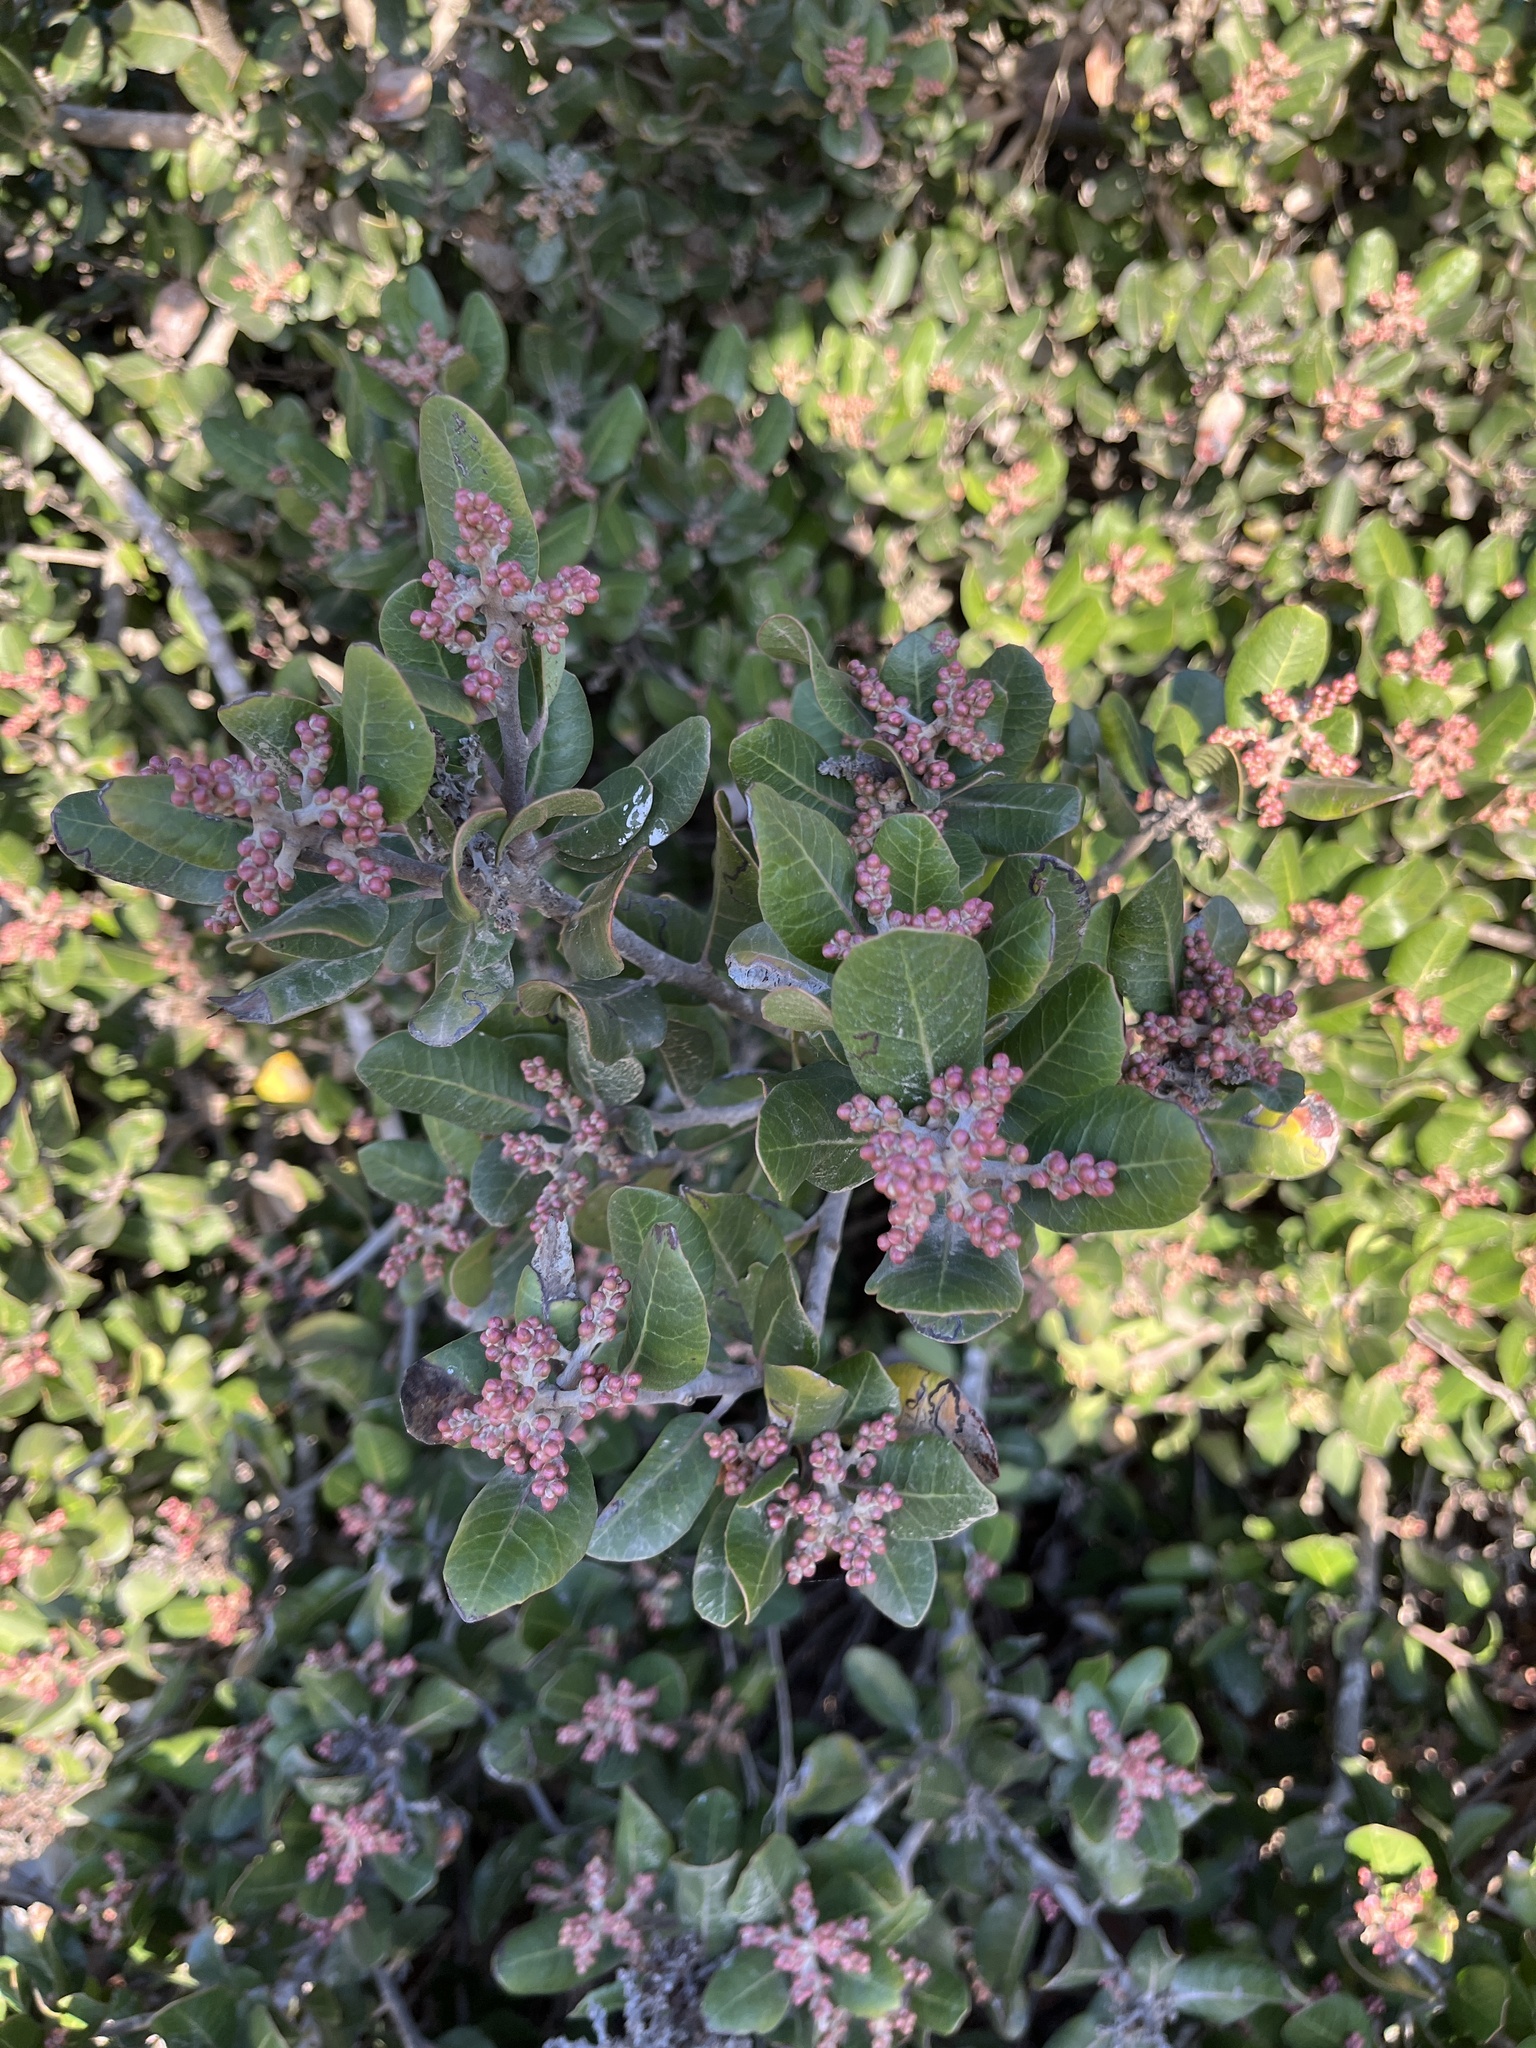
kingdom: Plantae
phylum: Tracheophyta
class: Magnoliopsida
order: Sapindales
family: Anacardiaceae
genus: Rhus
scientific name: Rhus integrifolia
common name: Lemonade sumac
